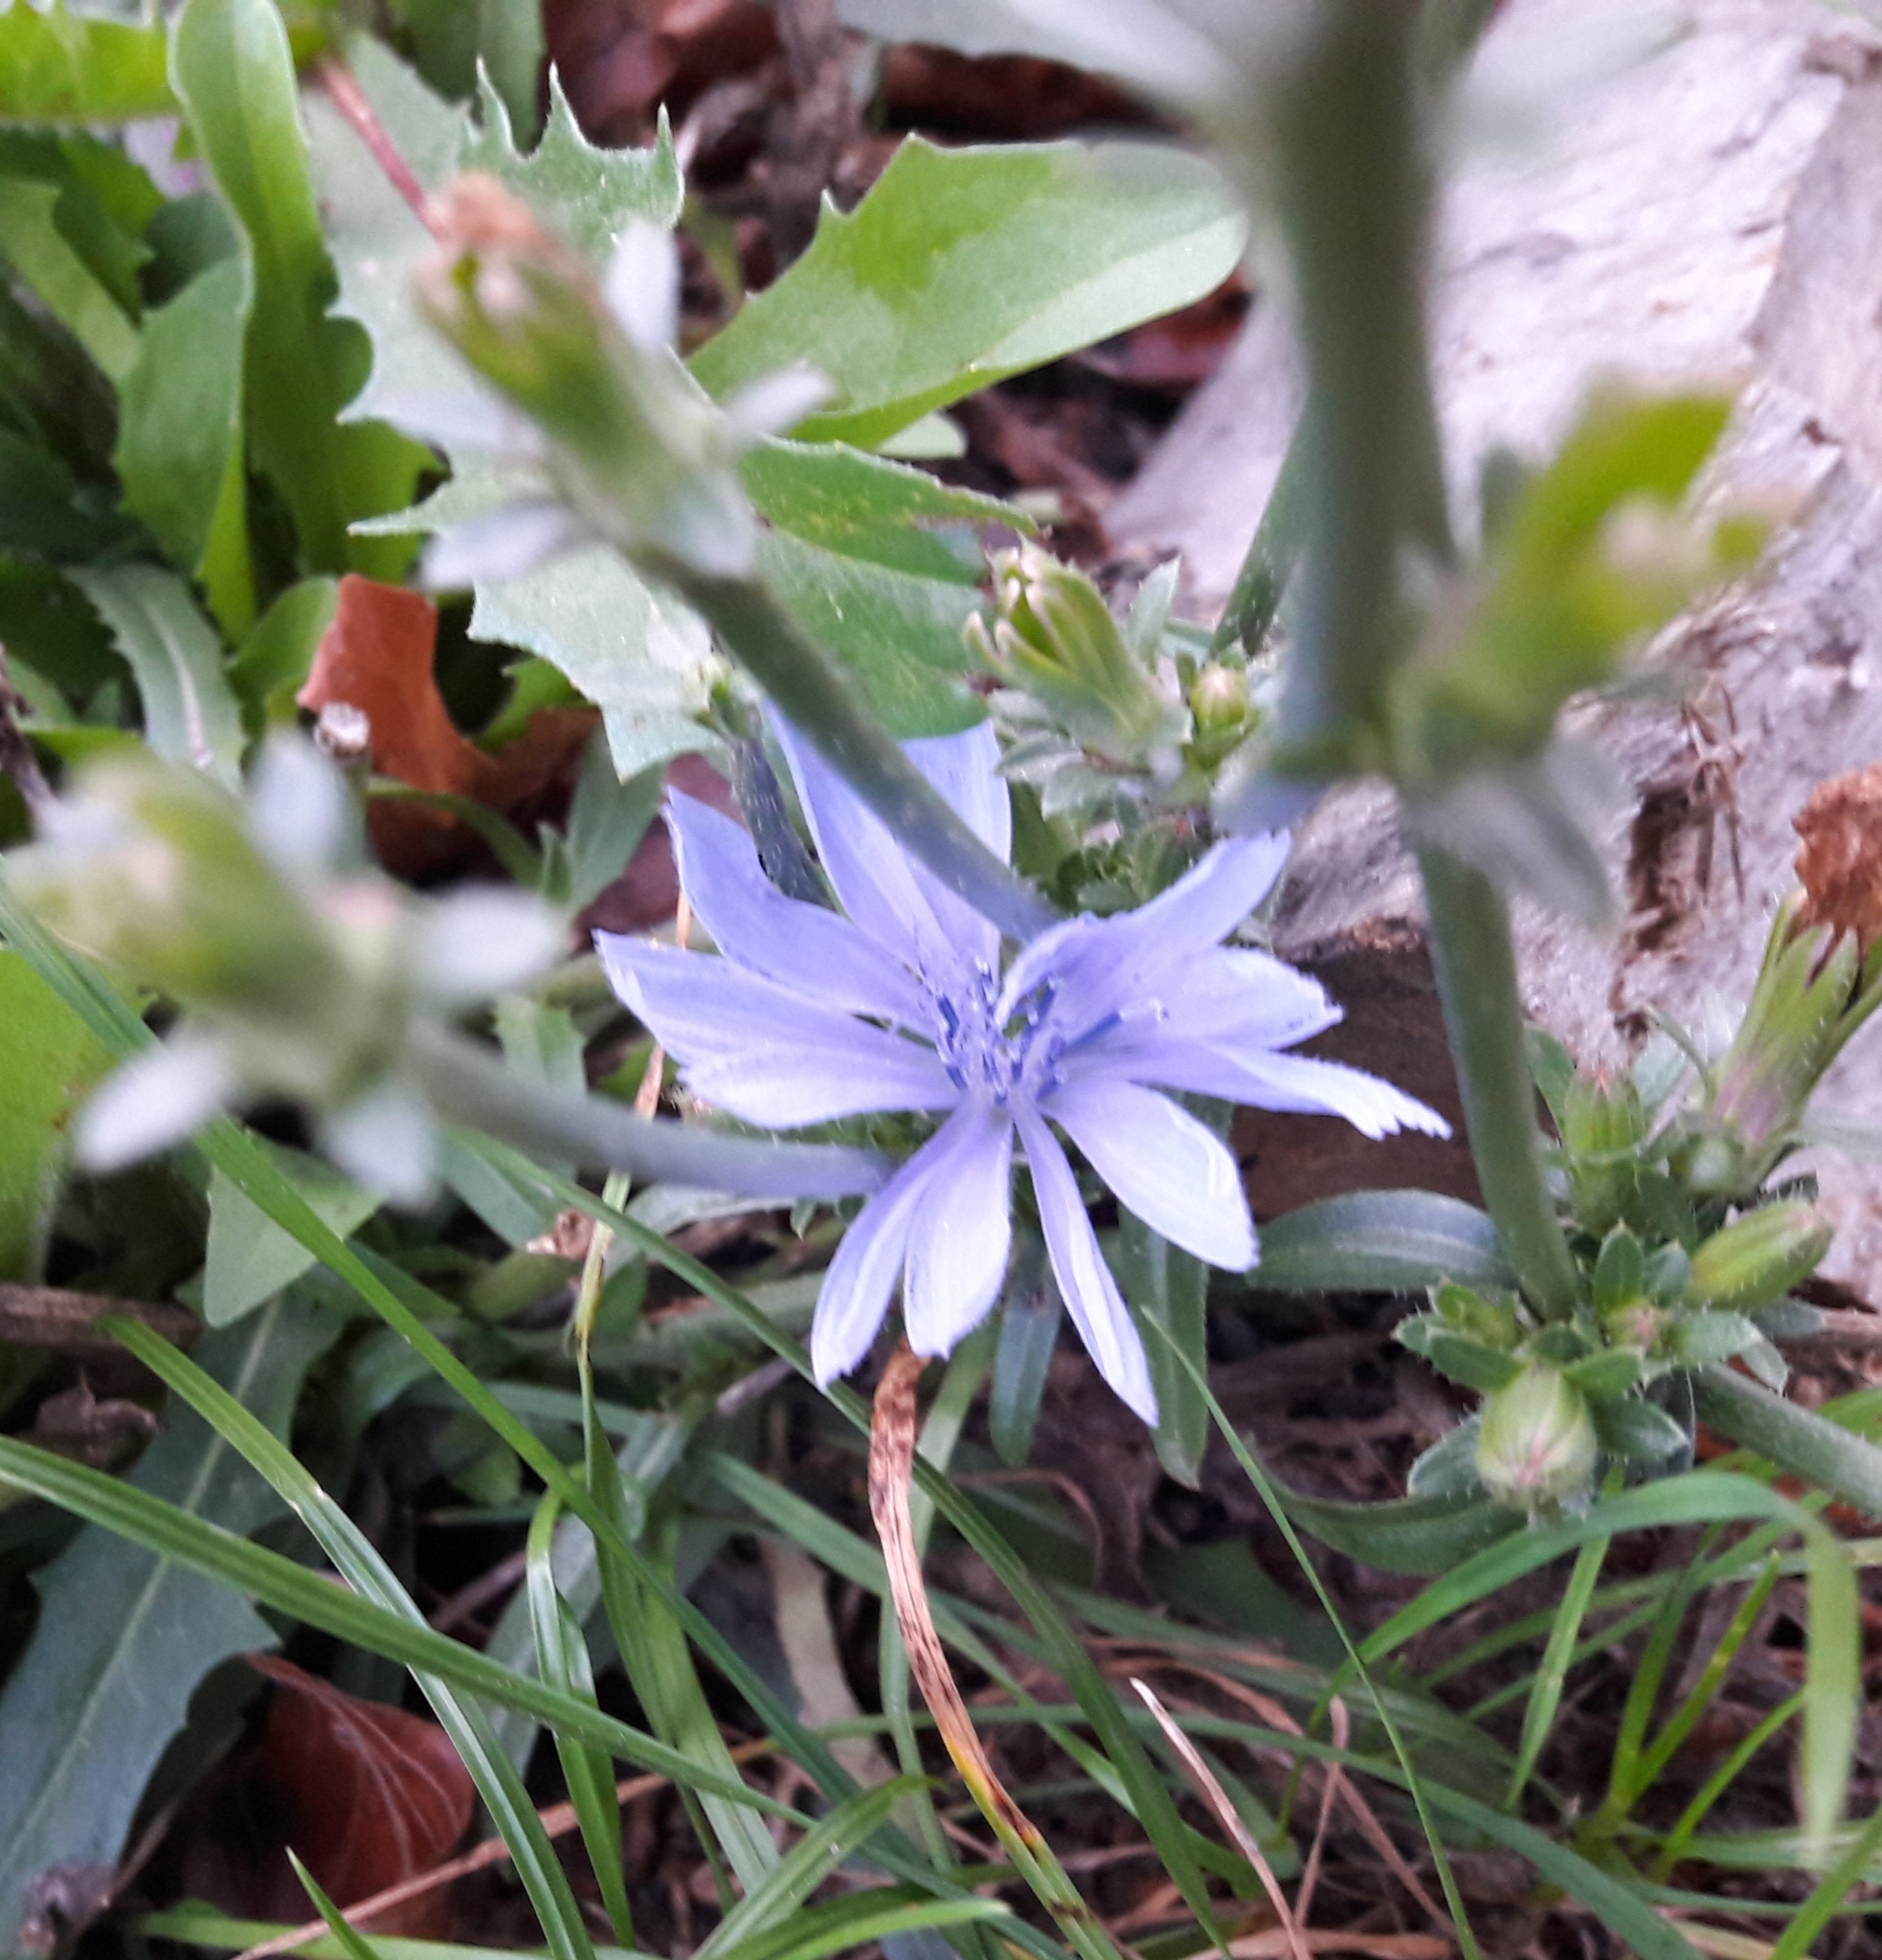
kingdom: Plantae
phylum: Tracheophyta
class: Magnoliopsida
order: Asterales
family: Asteraceae
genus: Cichorium
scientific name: Cichorium intybus
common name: Chicory
